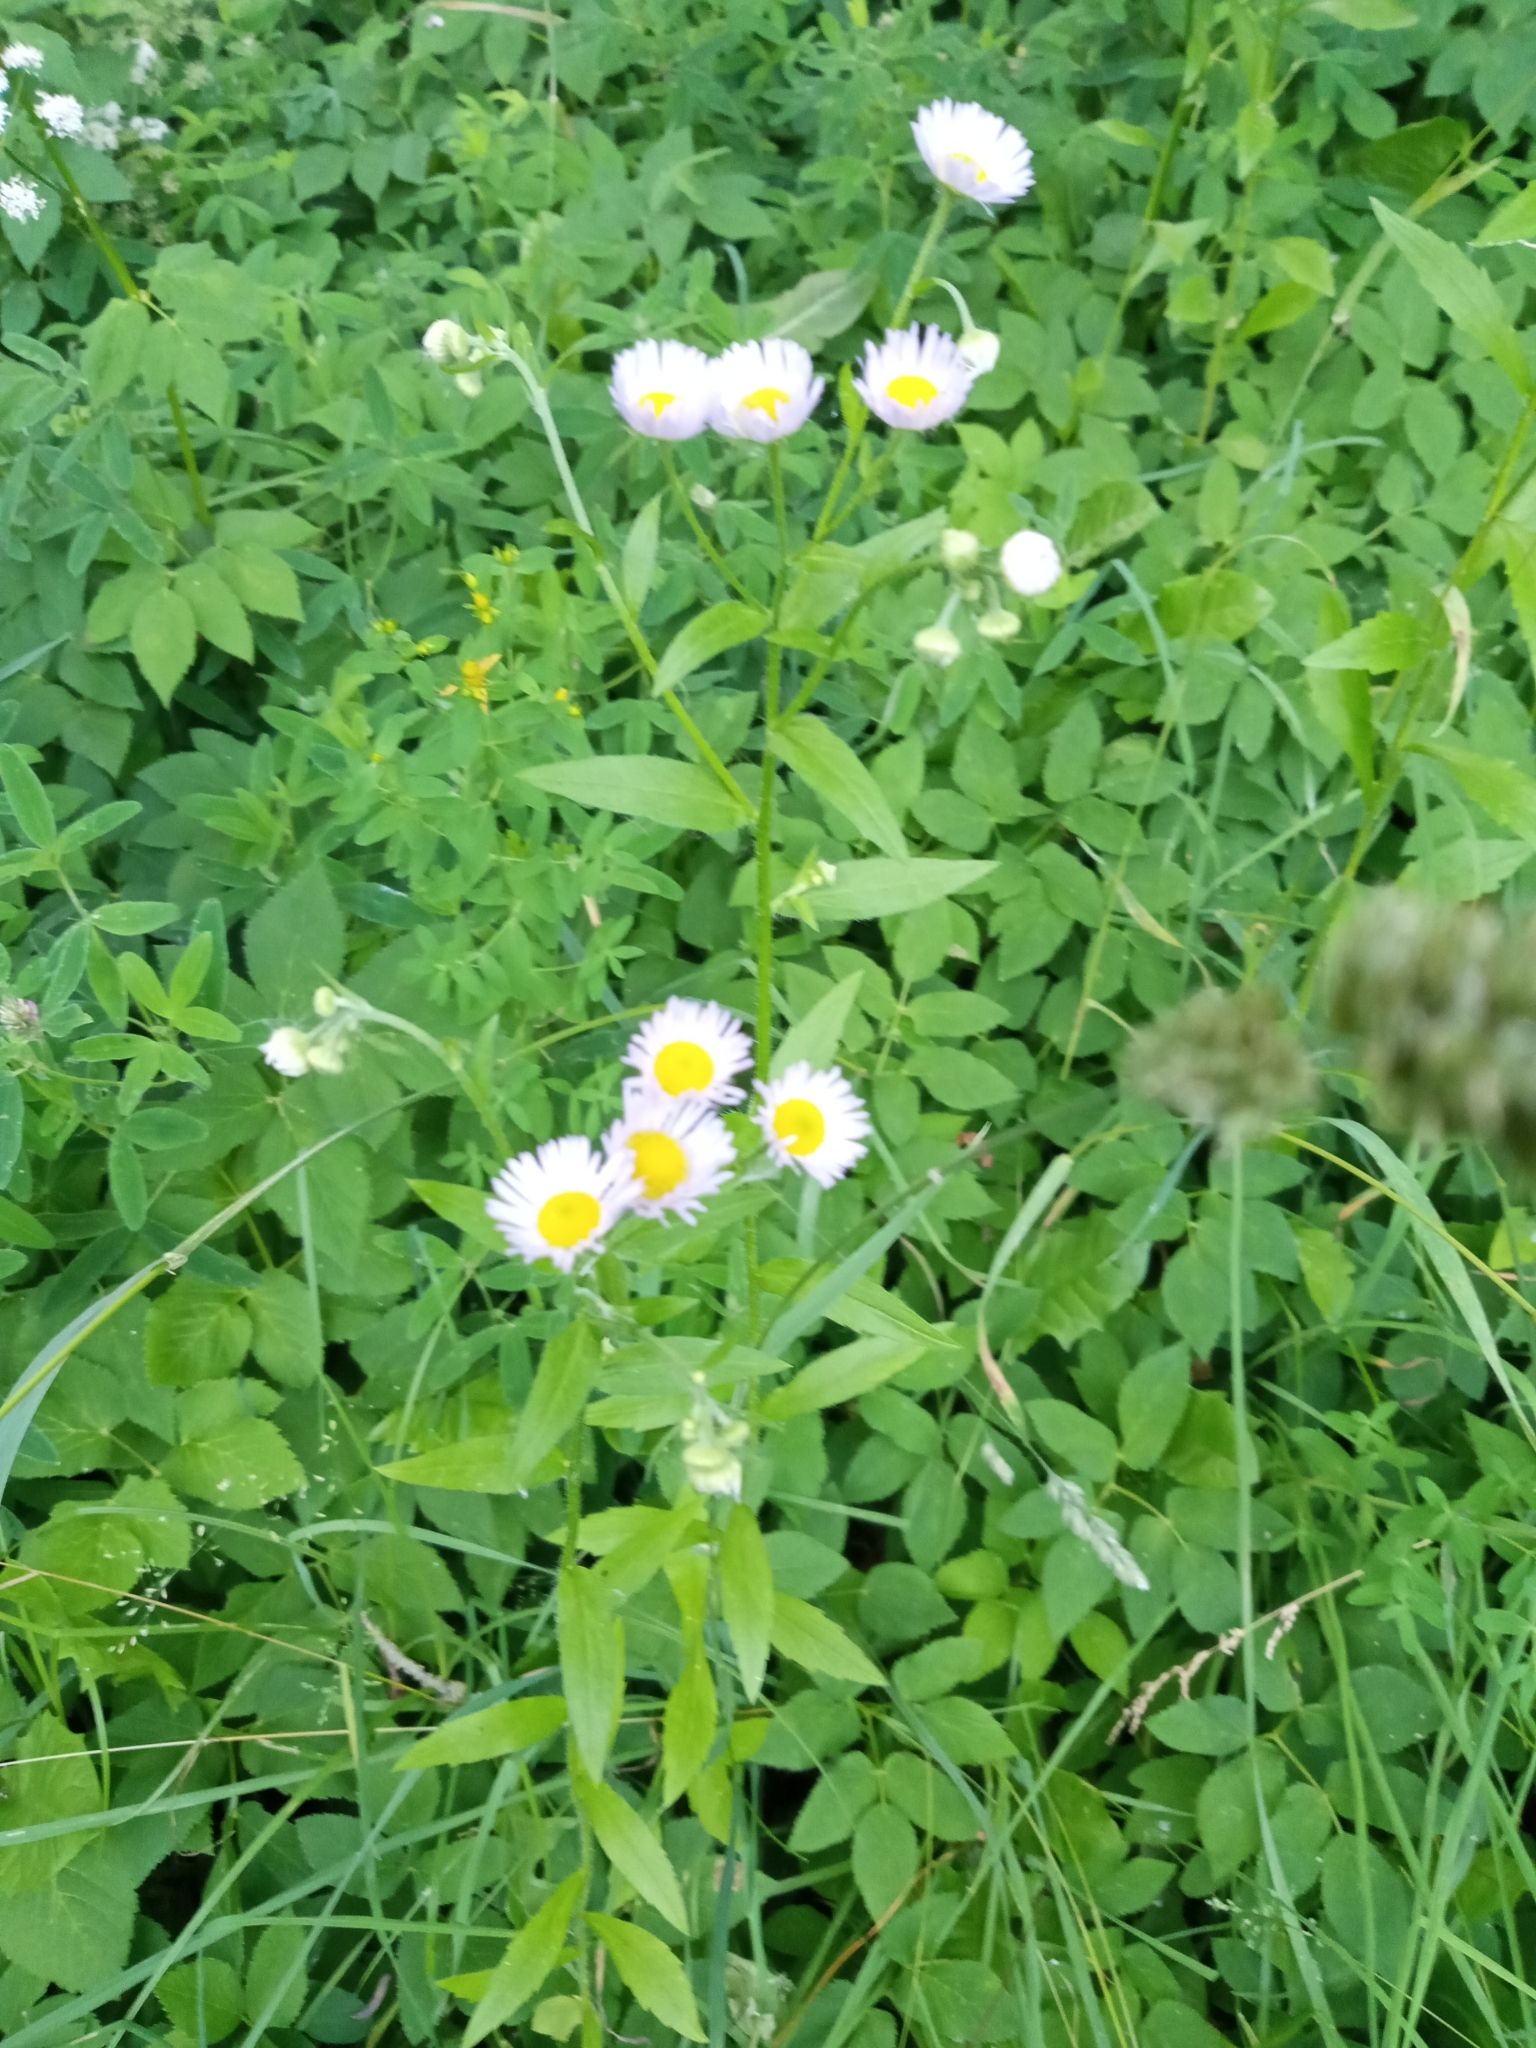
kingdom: Plantae
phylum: Tracheophyta
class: Magnoliopsida
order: Asterales
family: Asteraceae
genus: Erigeron
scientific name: Erigeron annuus
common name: Tall fleabane
